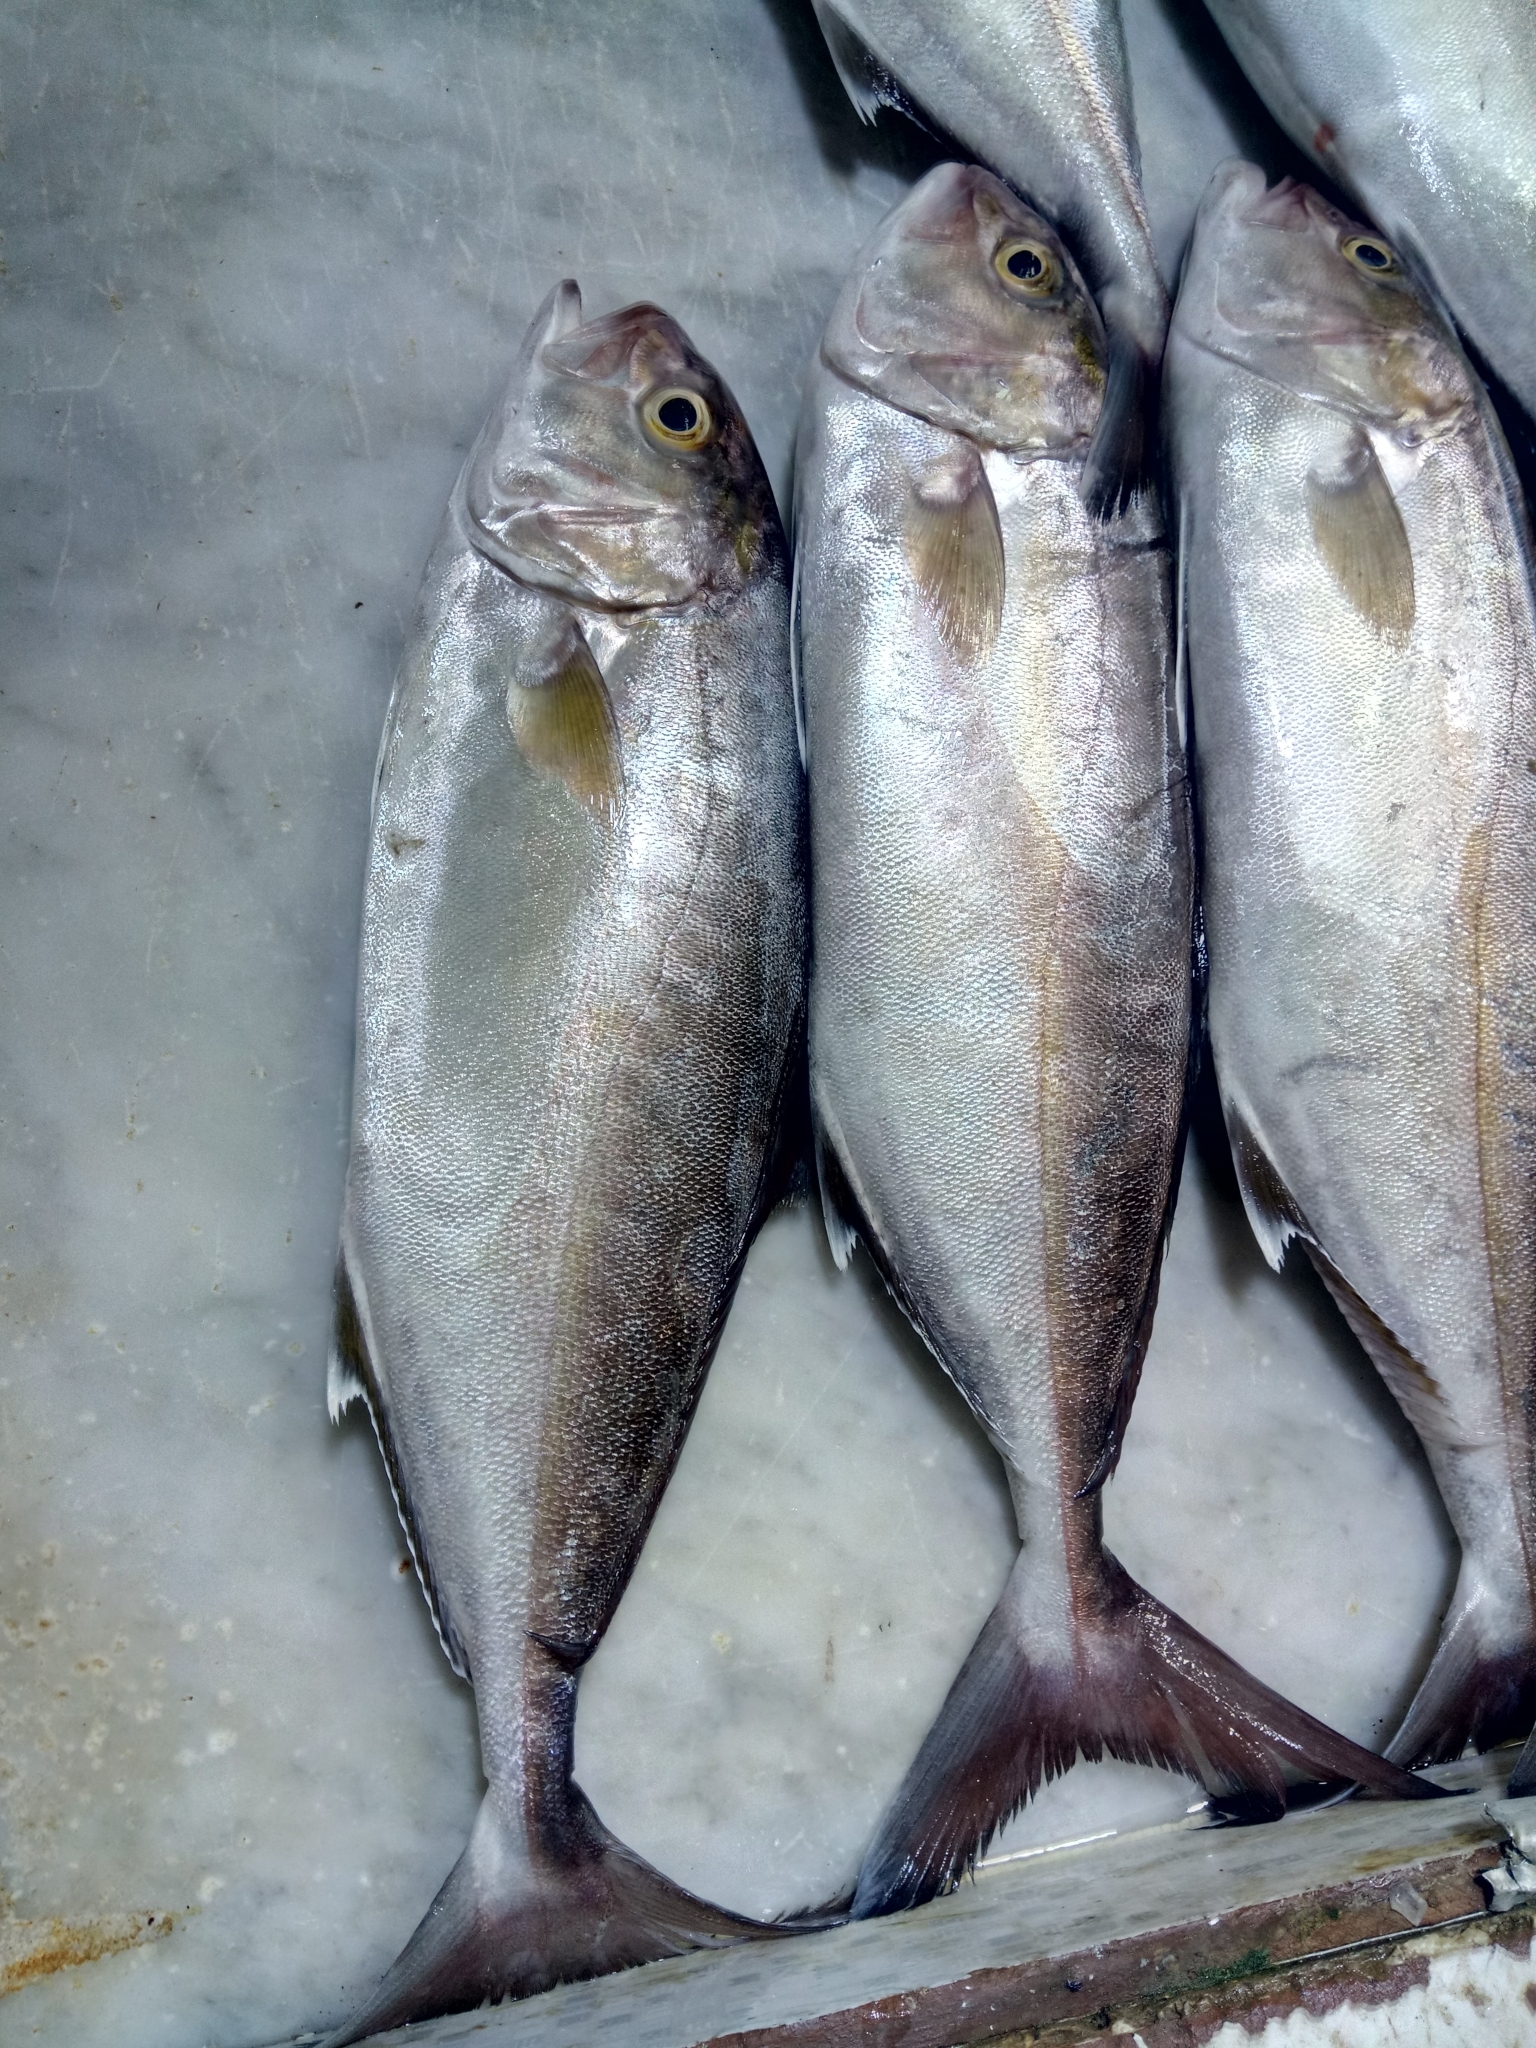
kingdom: Animalia
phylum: Chordata
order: Perciformes
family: Carangidae
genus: Seriola
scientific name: Seriola dumerili
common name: Greater amberjack
